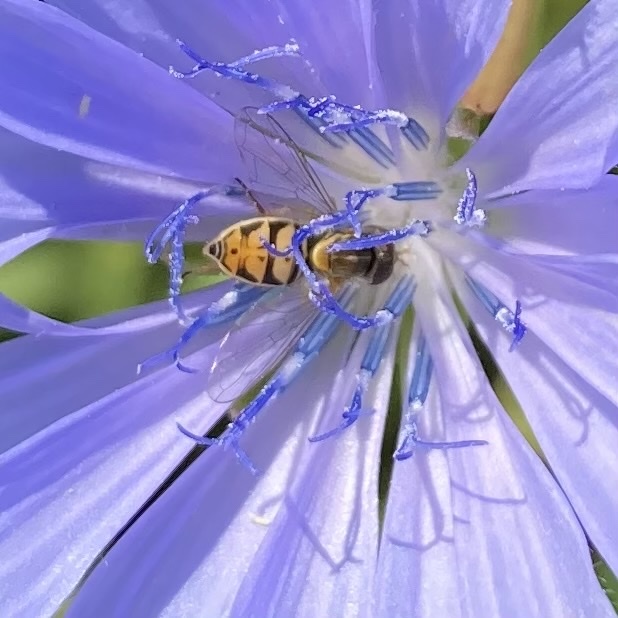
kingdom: Animalia
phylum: Arthropoda
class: Insecta
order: Diptera
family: Syrphidae
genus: Toxomerus
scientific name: Toxomerus marginatus
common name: Syrphid fly
